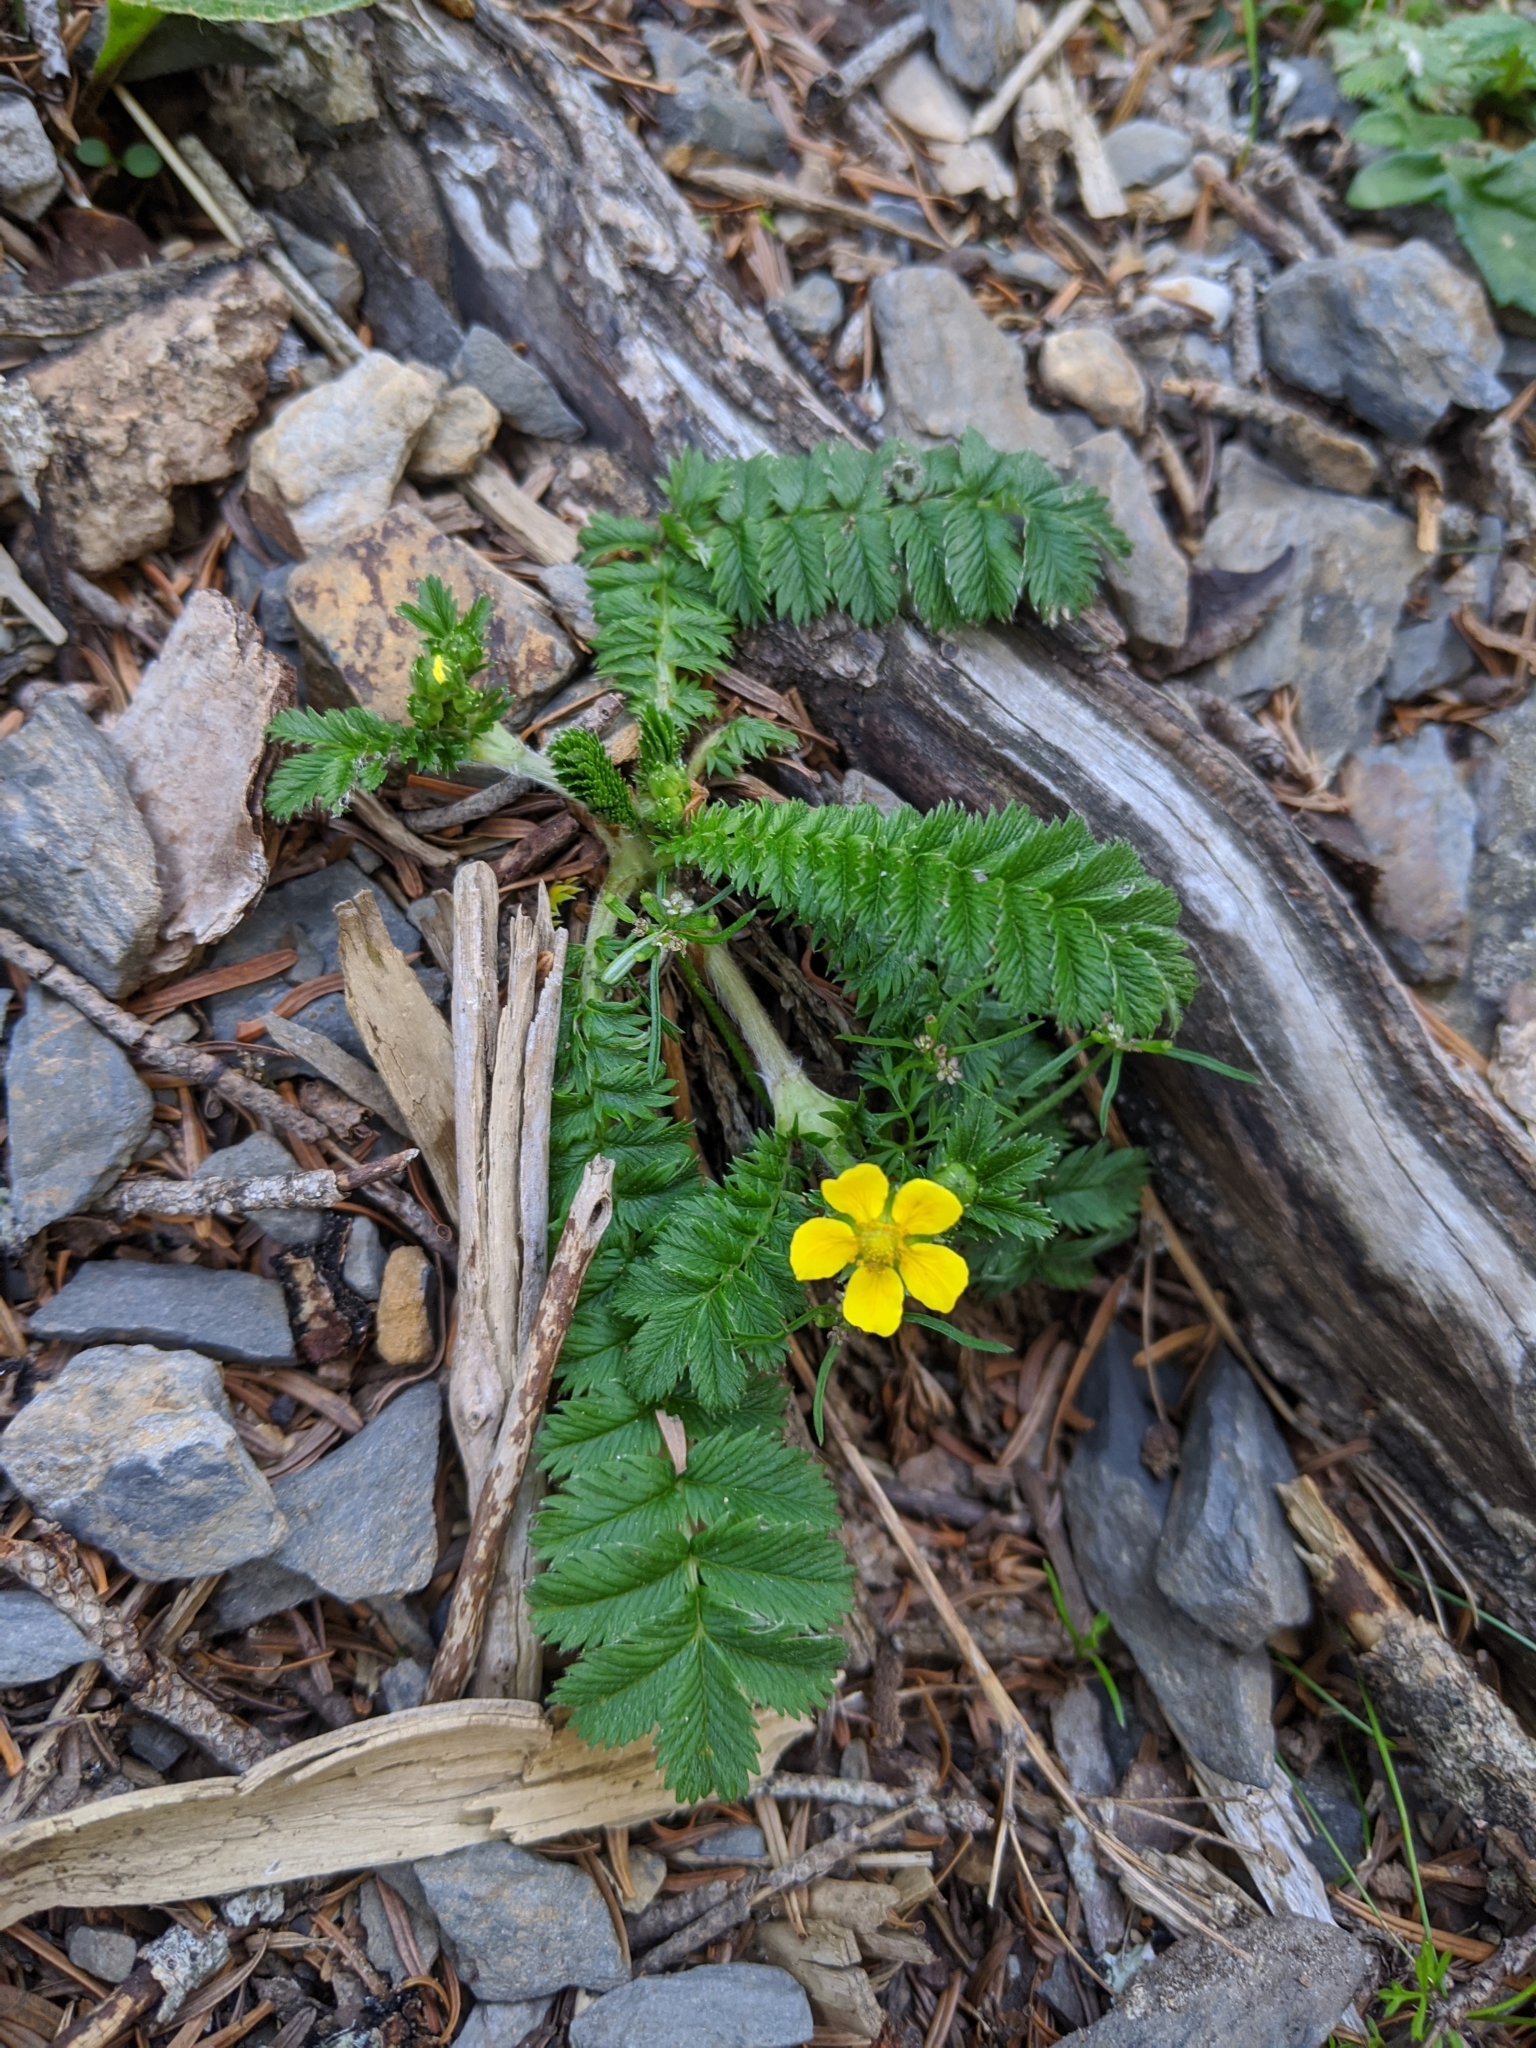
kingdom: Plantae
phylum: Tracheophyta
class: Magnoliopsida
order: Rosales
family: Rosaceae
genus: Argentina
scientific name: Argentina leuconota
